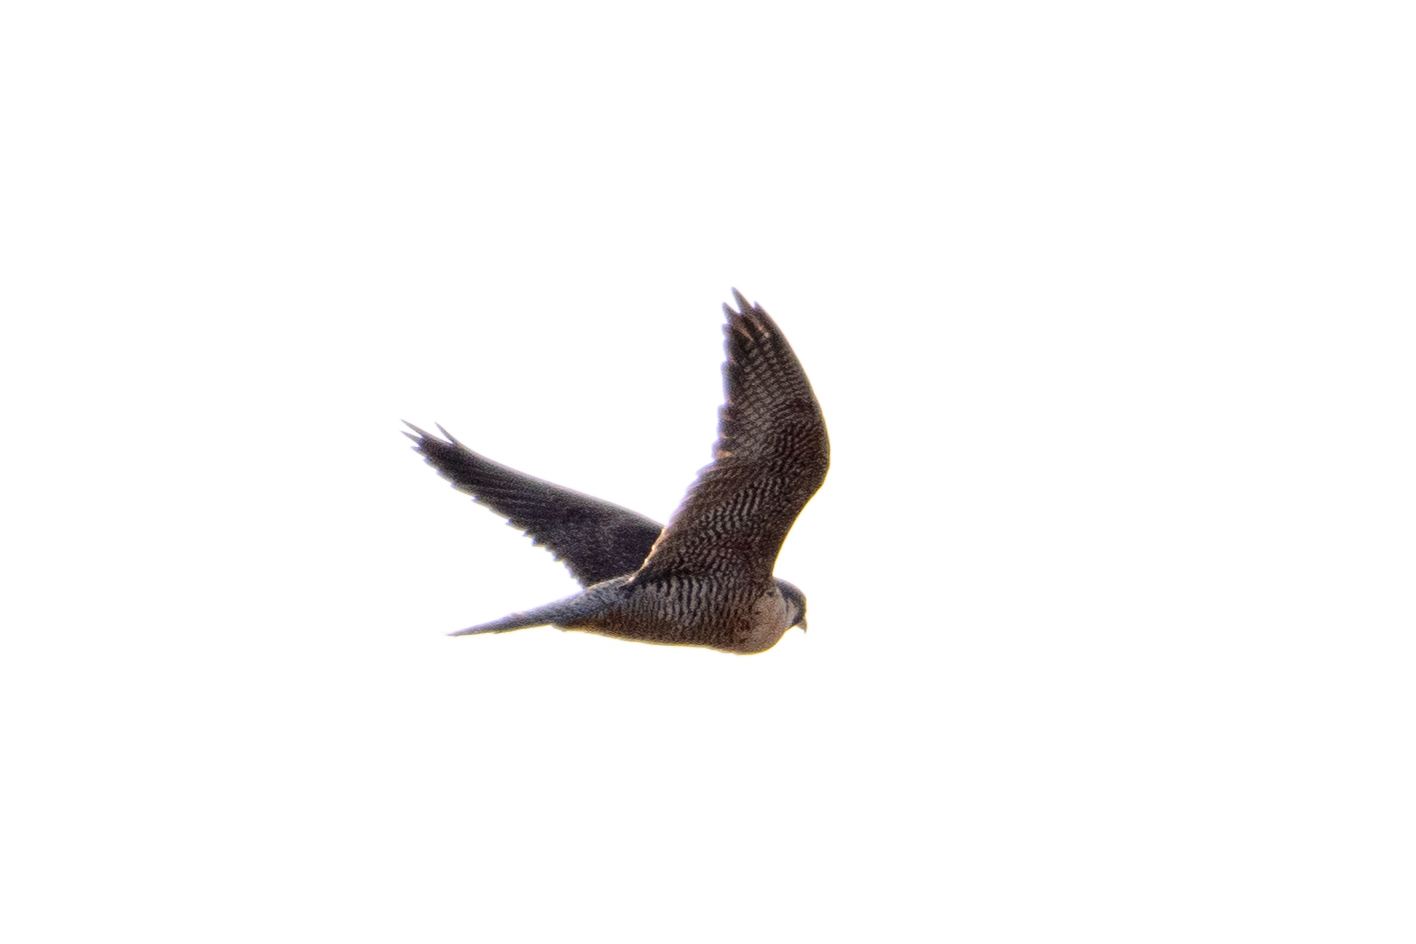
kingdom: Animalia
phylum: Chordata
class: Aves
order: Falconiformes
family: Falconidae
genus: Falco
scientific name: Falco peregrinus
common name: Peregrine falcon
